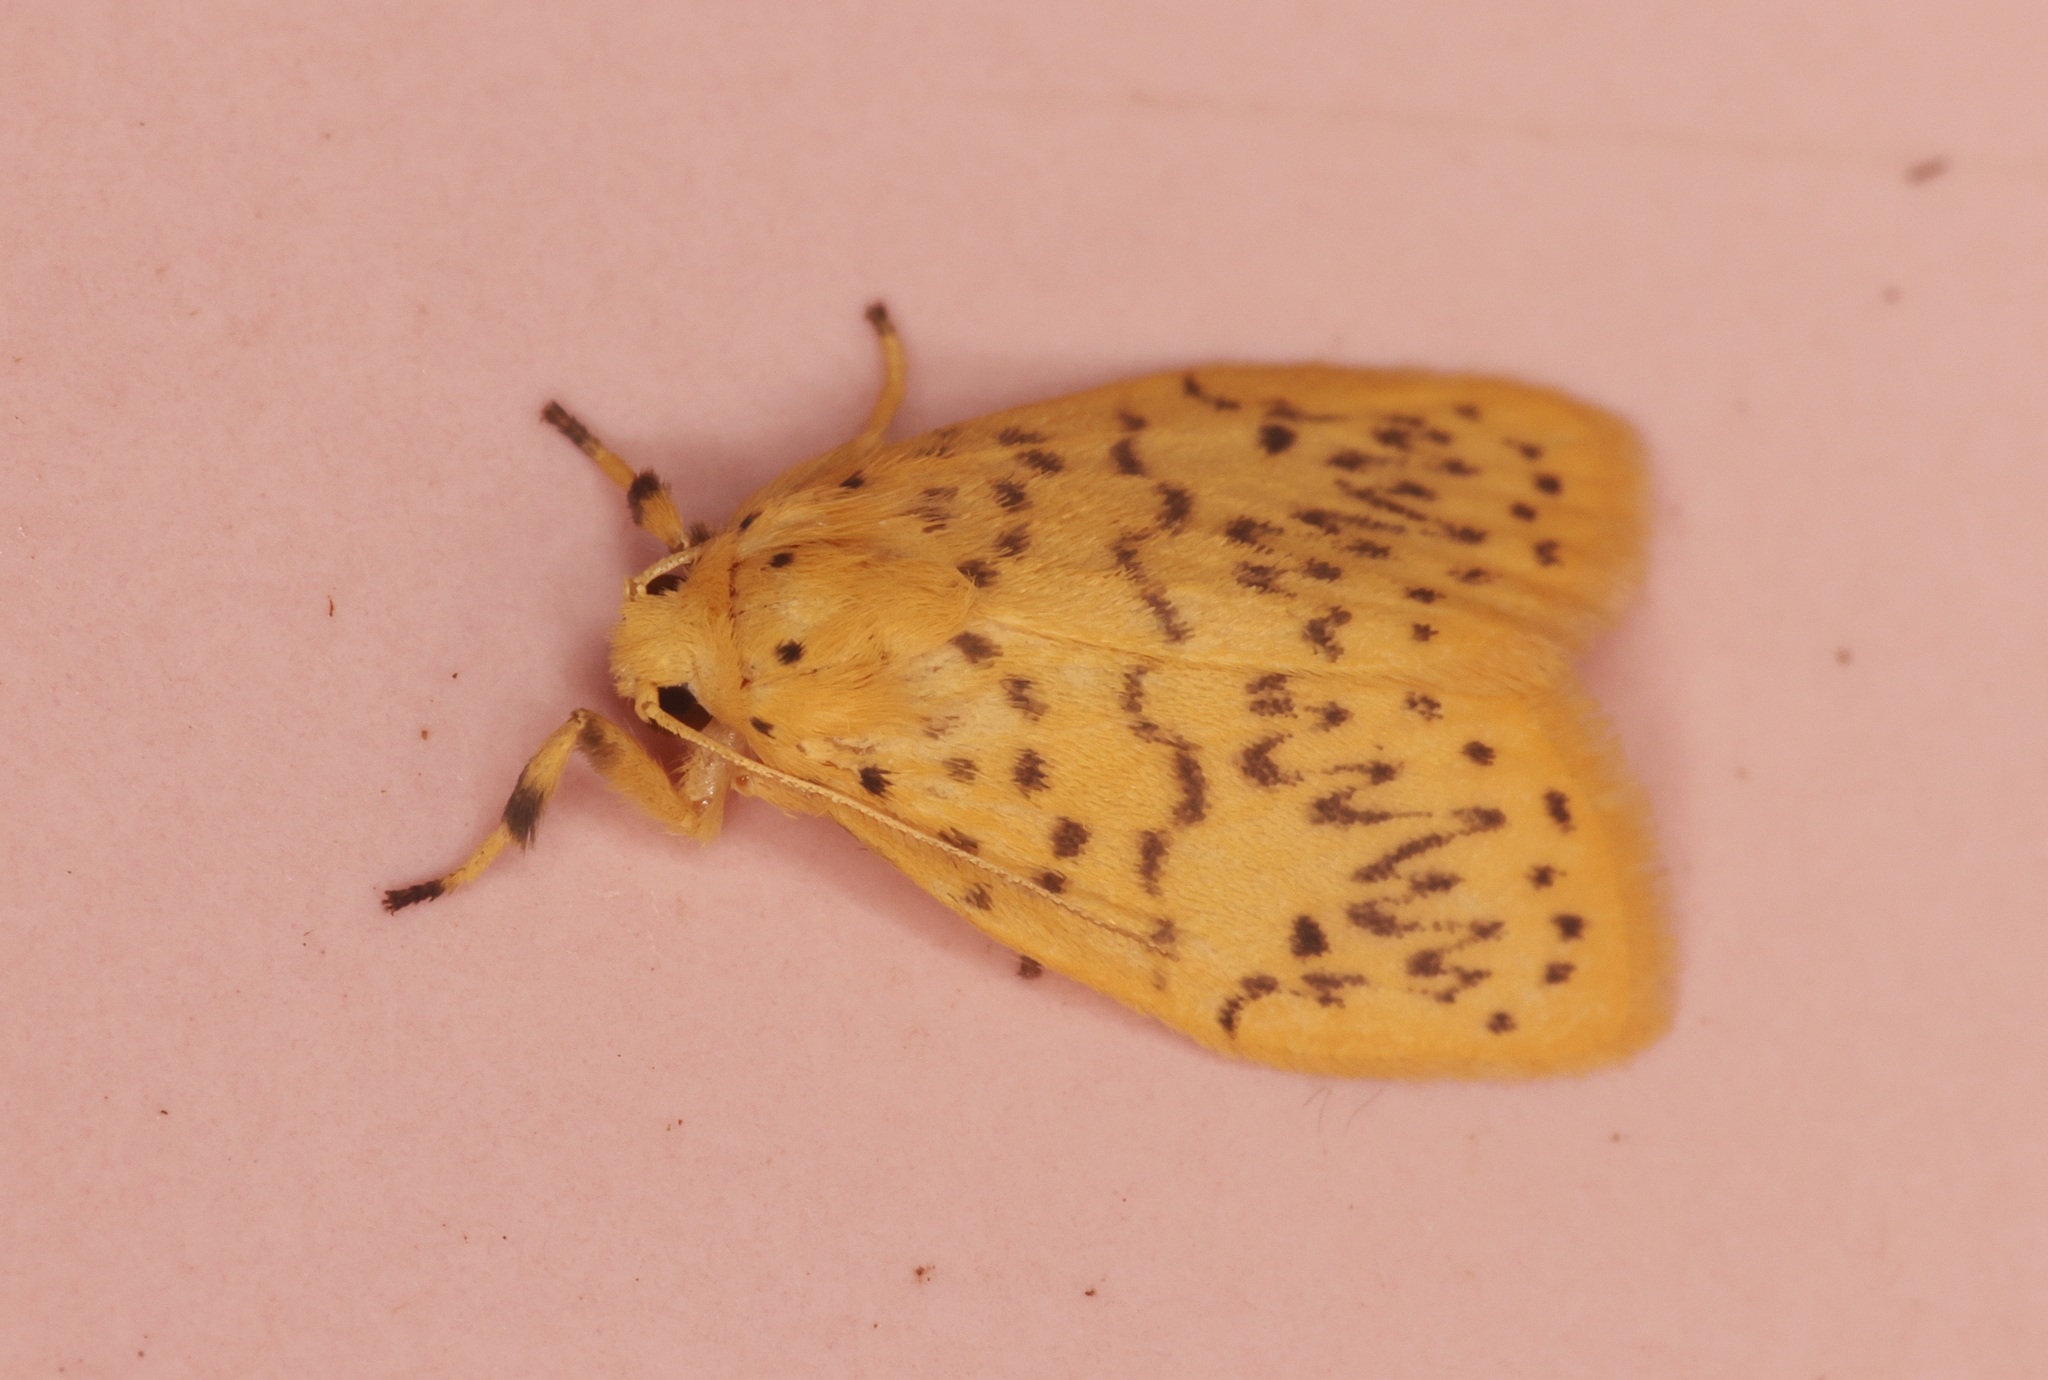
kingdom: Animalia
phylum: Arthropoda
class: Insecta
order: Lepidoptera
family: Erebidae
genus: Huangilene
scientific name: Huangilene
